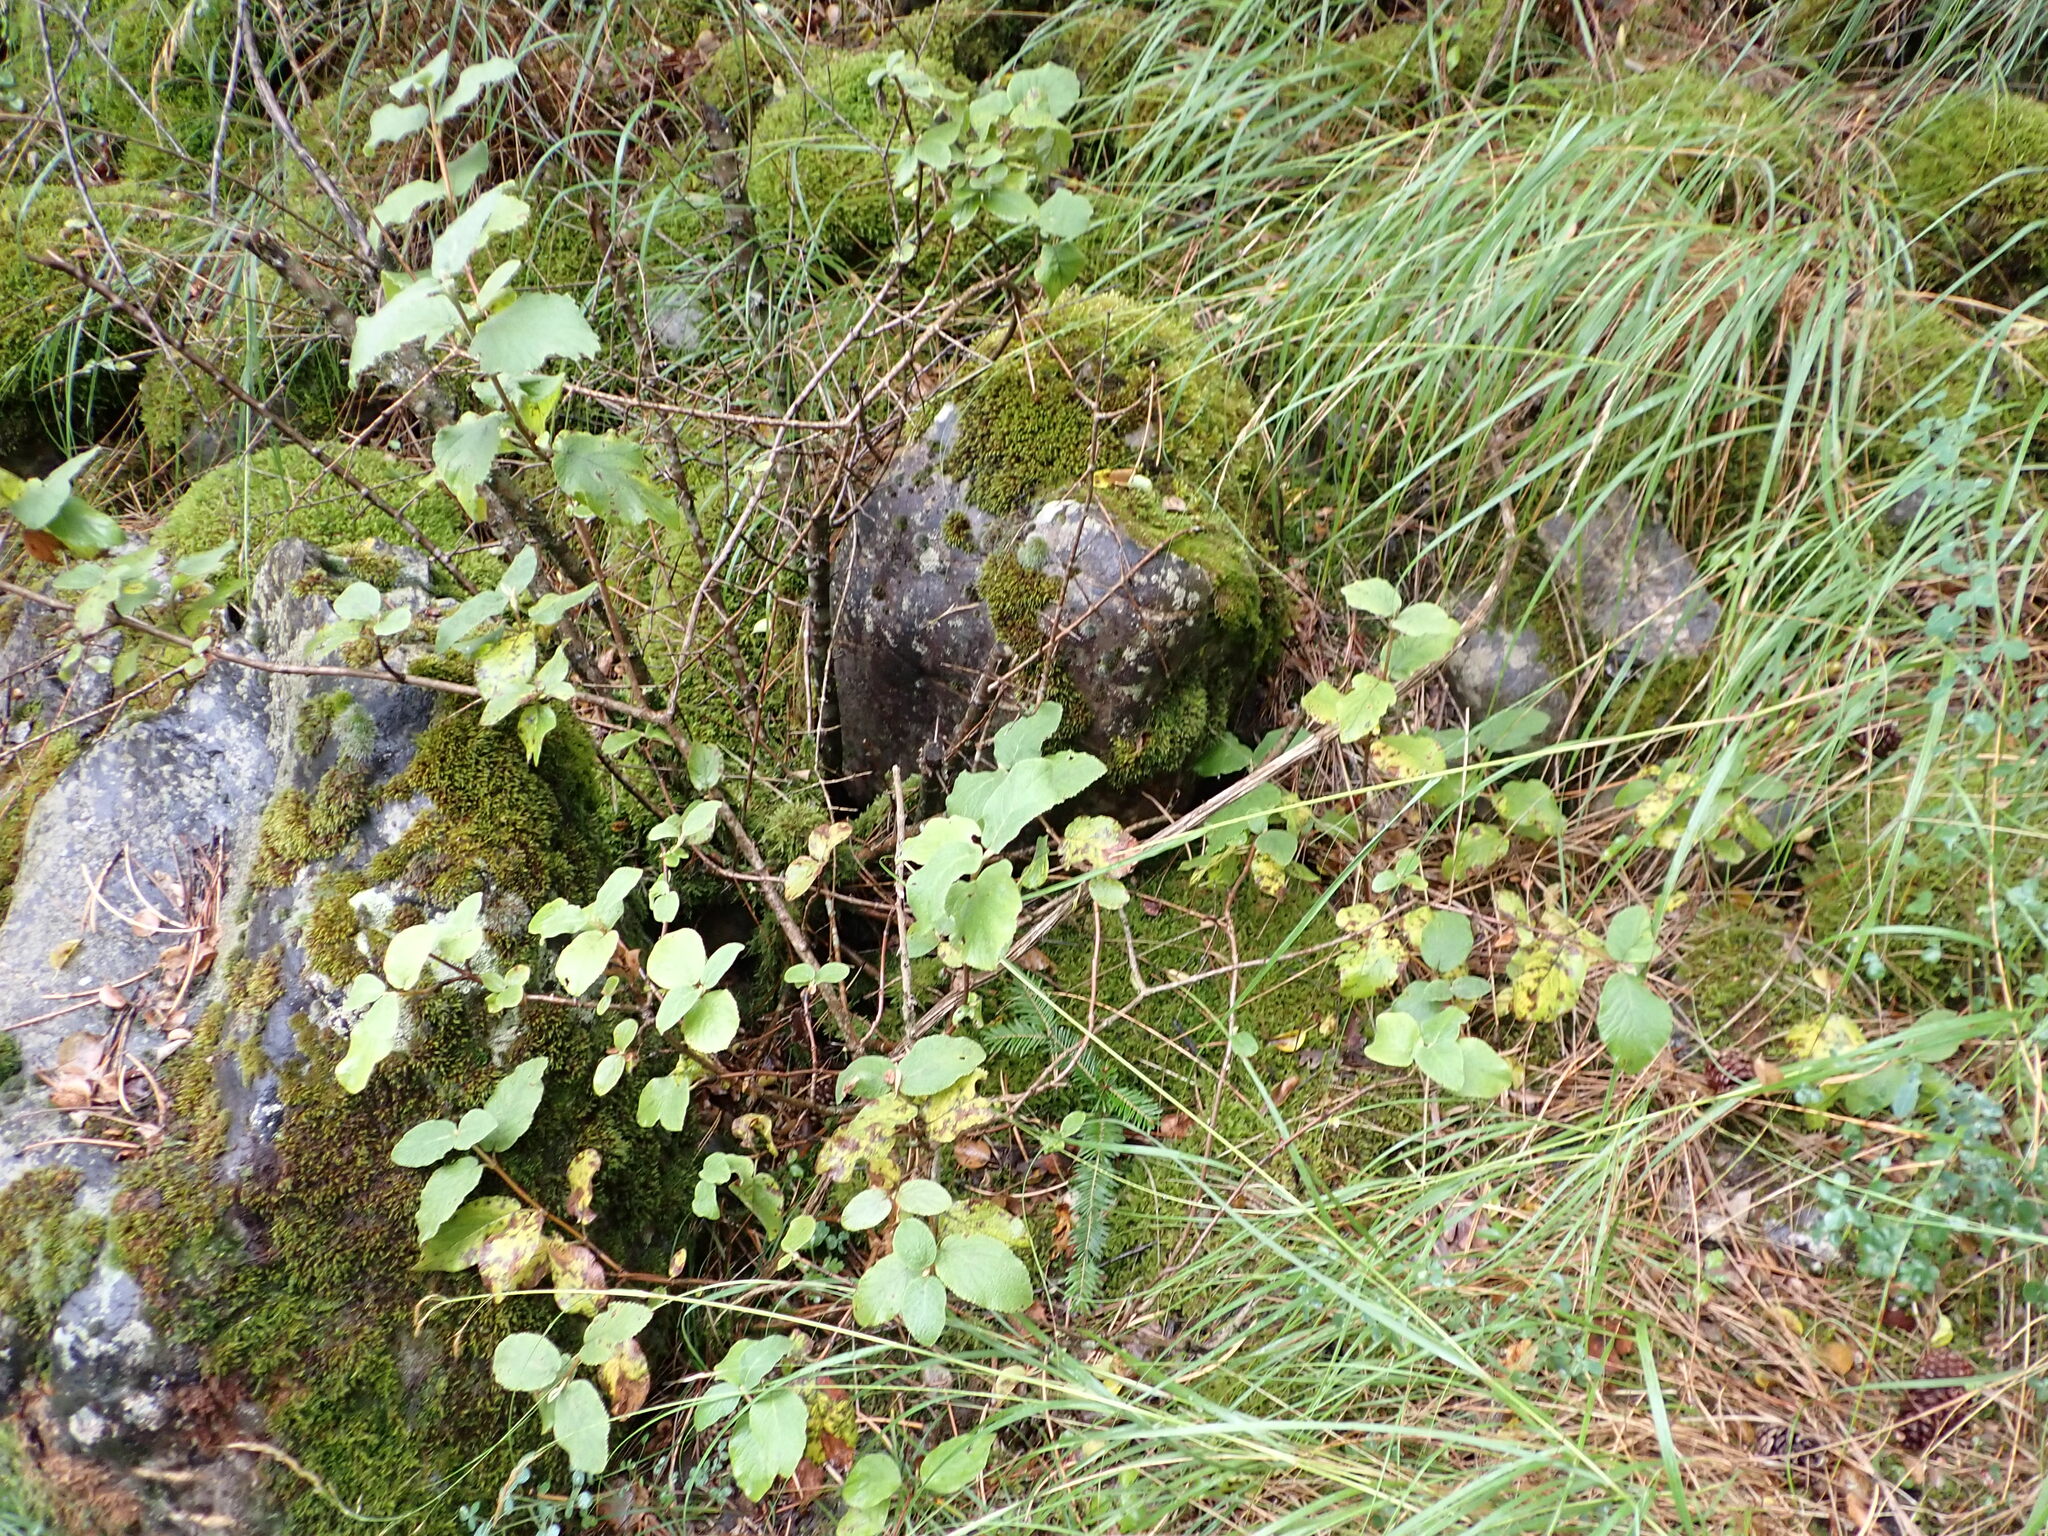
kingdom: Plantae
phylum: Tracheophyta
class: Magnoliopsida
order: Dipsacales
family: Viburnaceae
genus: Viburnum
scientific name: Viburnum lantana
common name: Wayfaring tree
